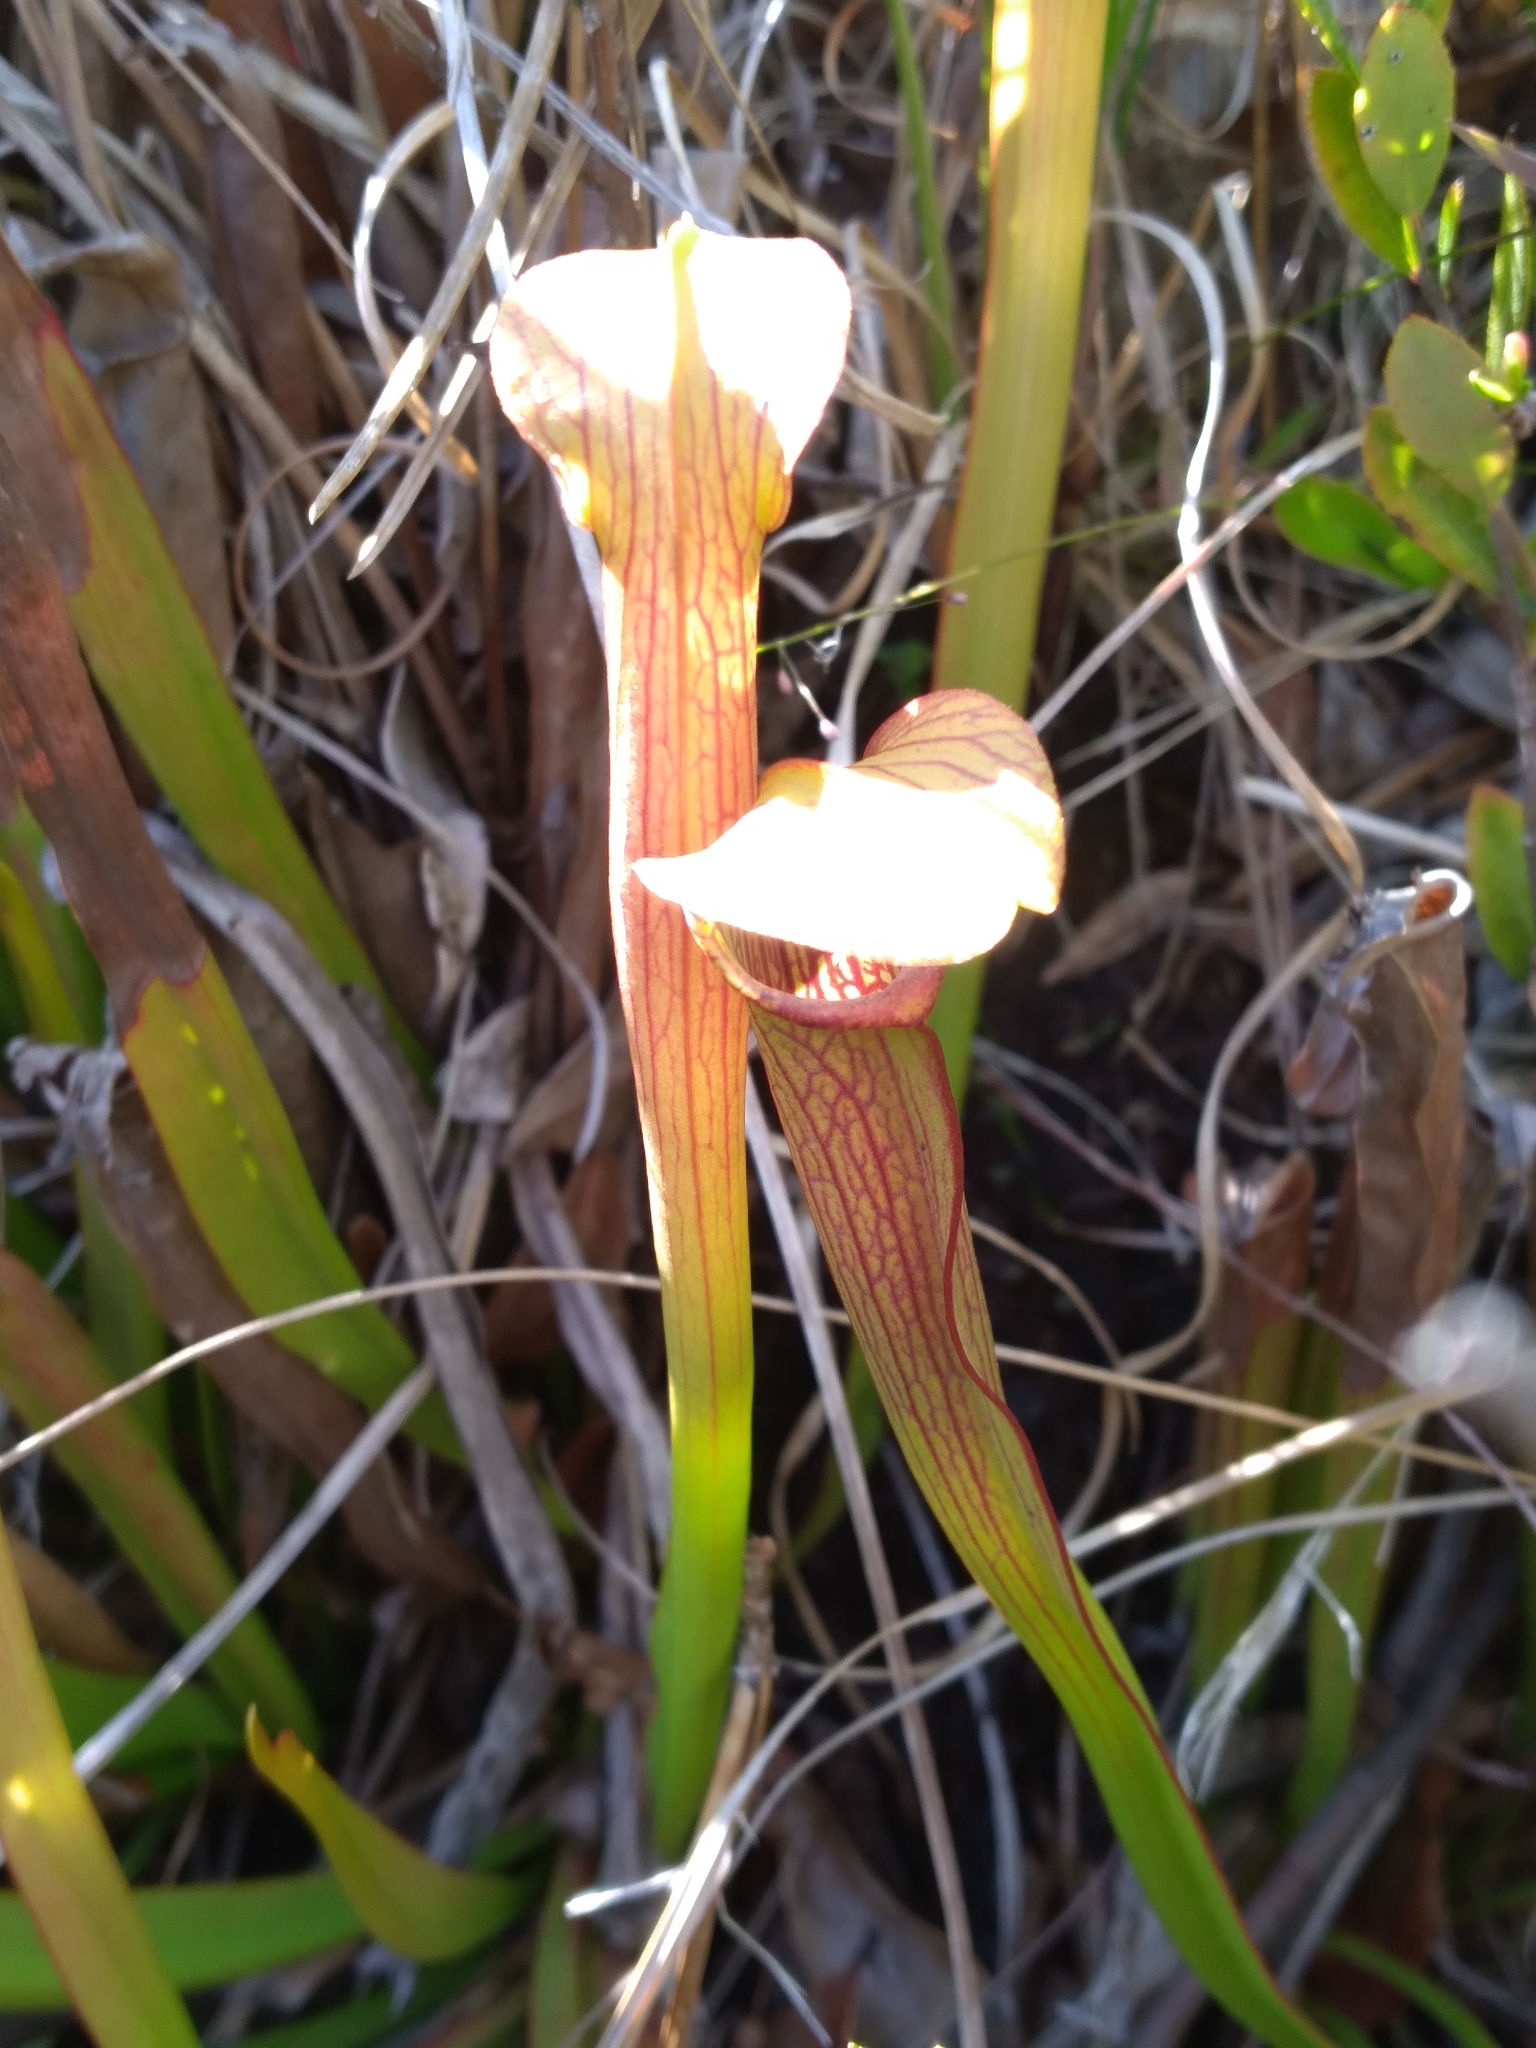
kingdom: Plantae
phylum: Tracheophyta
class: Magnoliopsida
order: Ericales
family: Sarraceniaceae
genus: Sarracenia
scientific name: Sarracenia rubra
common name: Sweet pitcherplant
